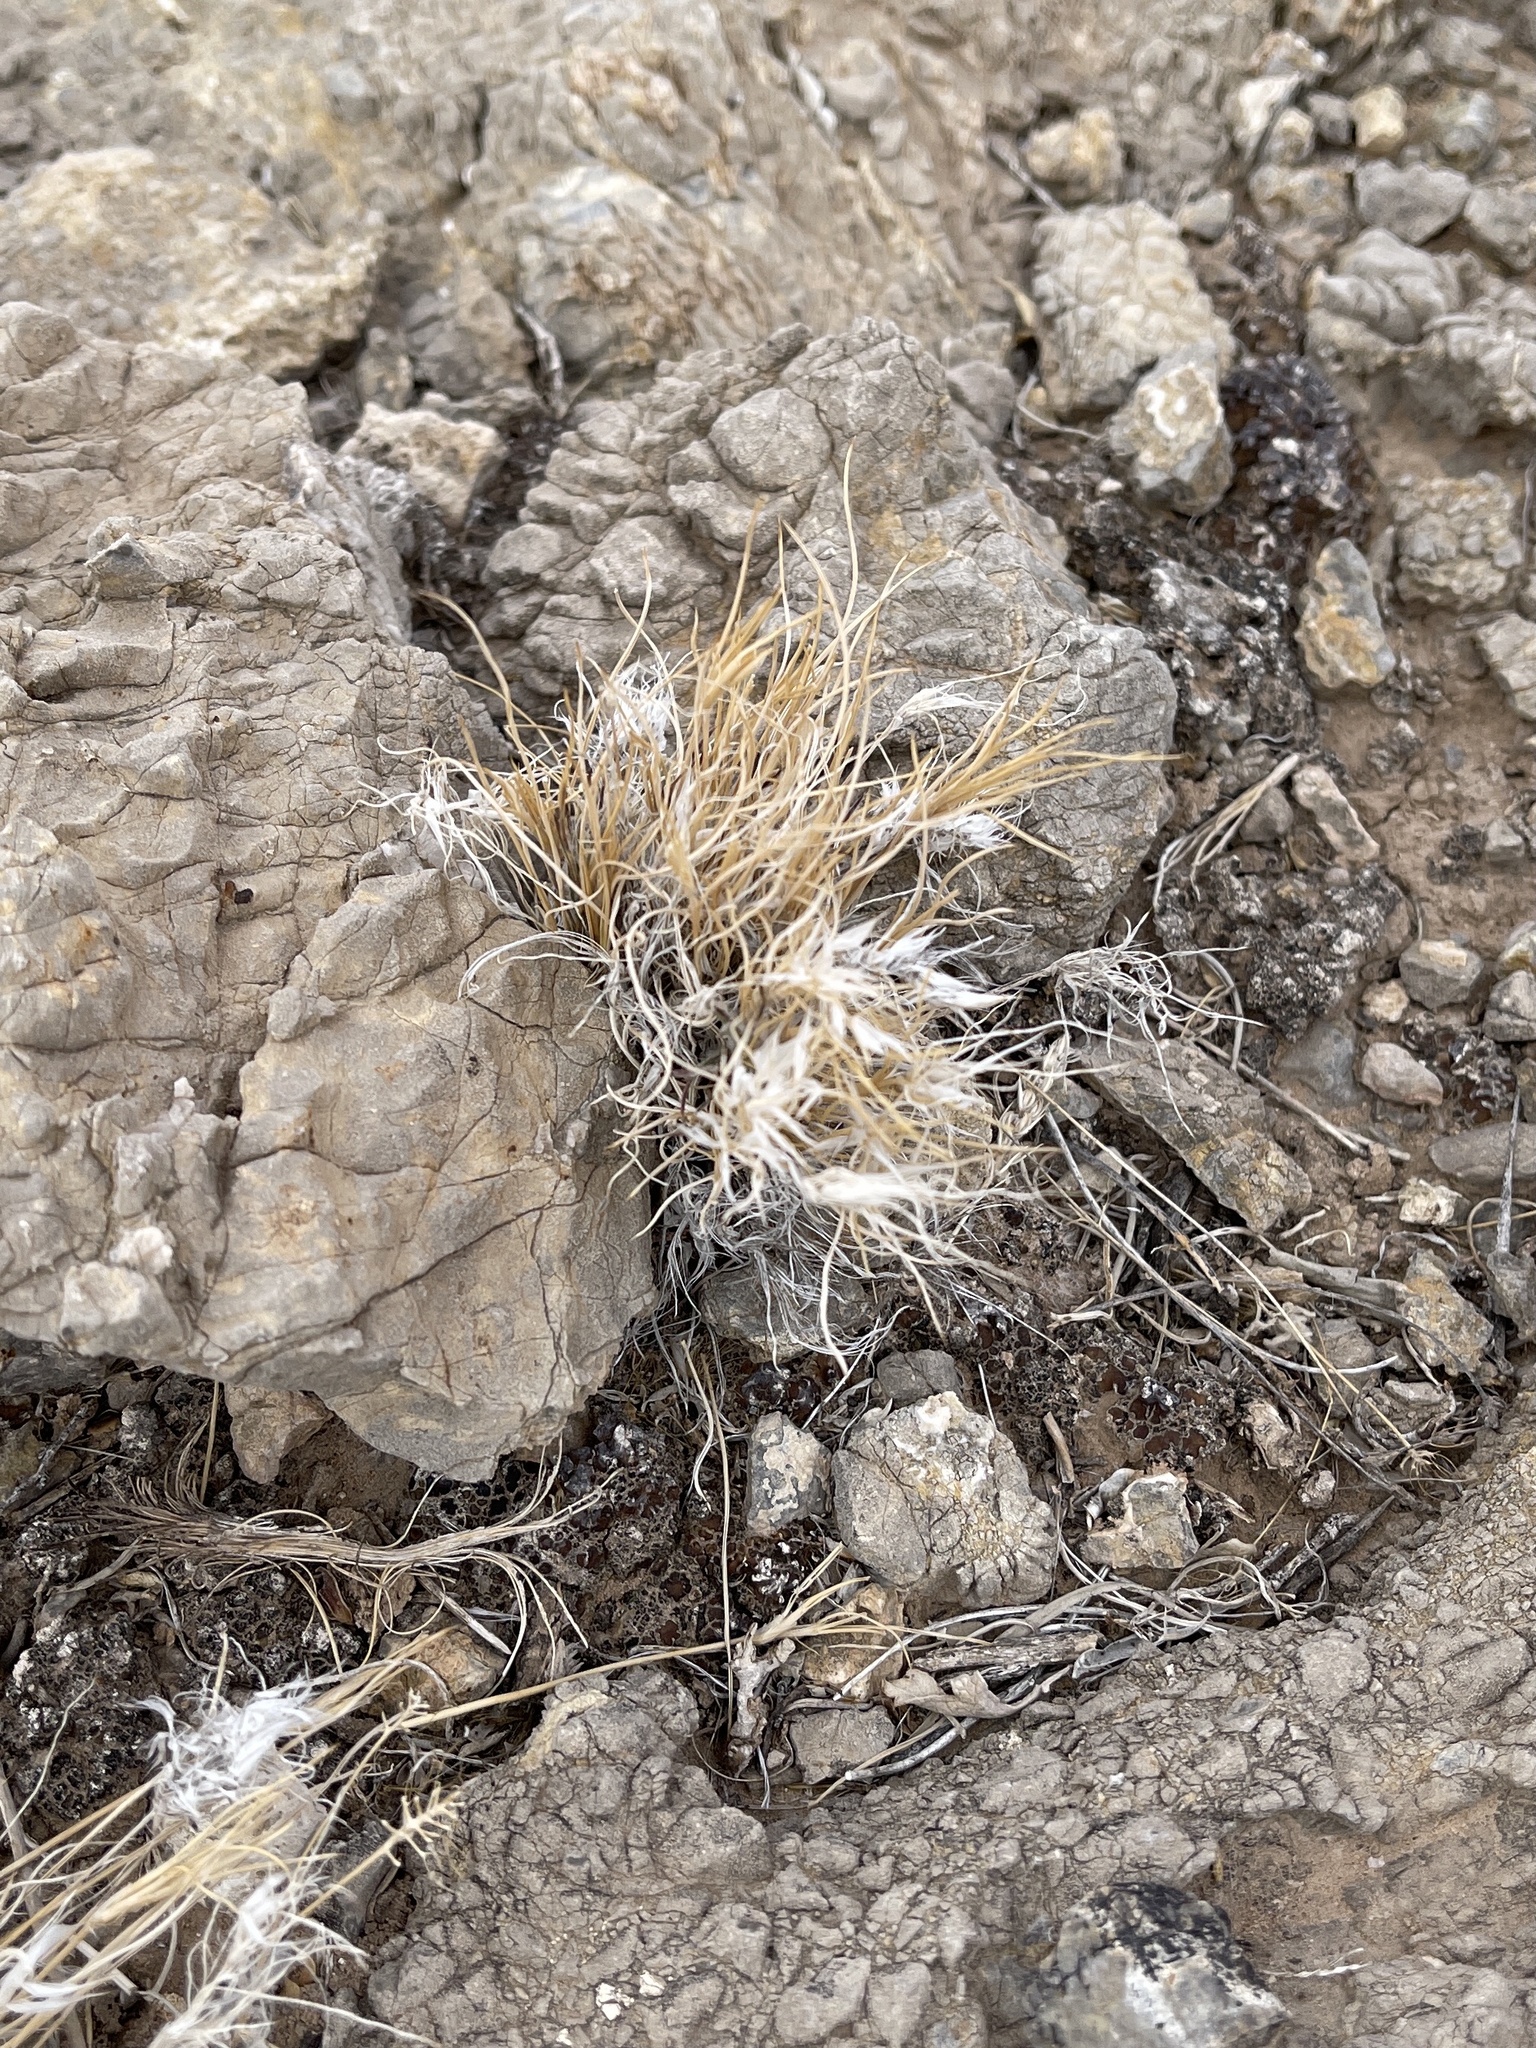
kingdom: Plantae
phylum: Tracheophyta
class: Liliopsida
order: Poales
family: Poaceae
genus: Dasyochloa
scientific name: Dasyochloa pulchella
